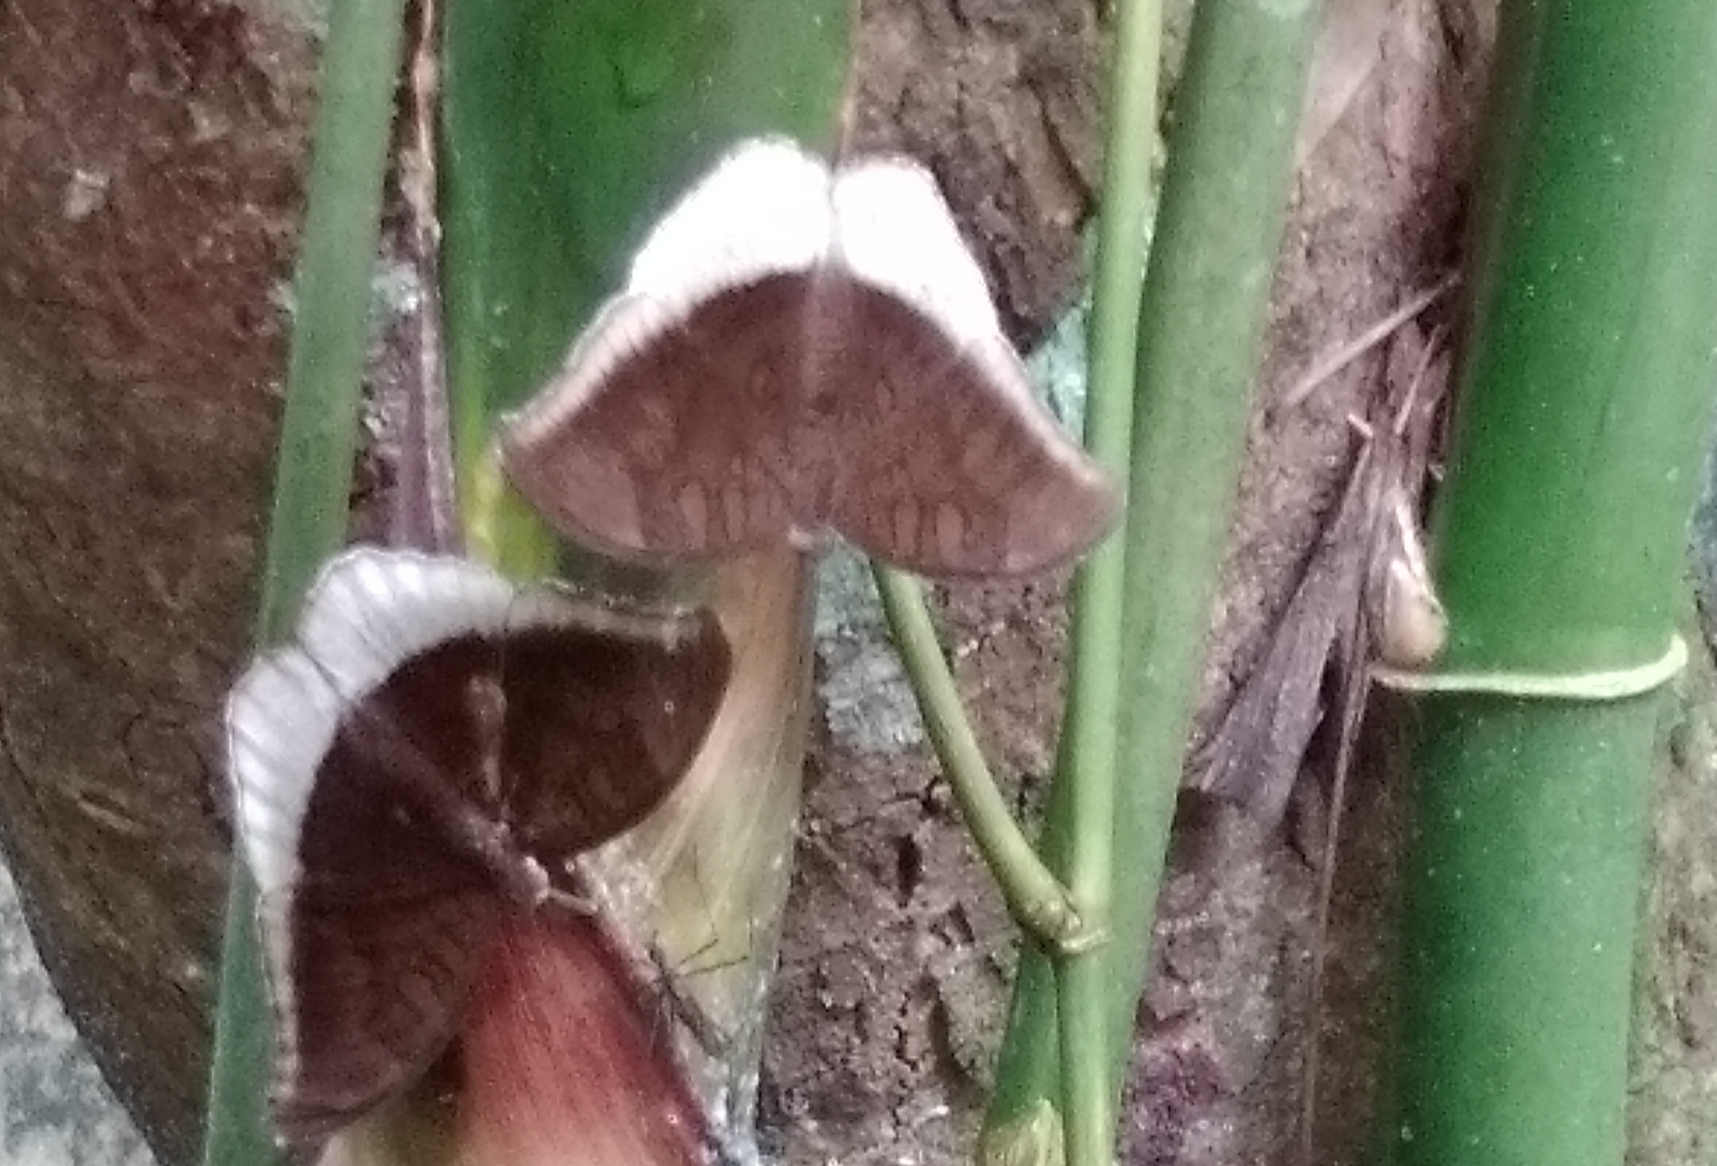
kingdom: Animalia
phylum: Arthropoda
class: Insecta
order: Lepidoptera
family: Nymphalidae
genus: Tanaecia
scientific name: Tanaecia lepidea
